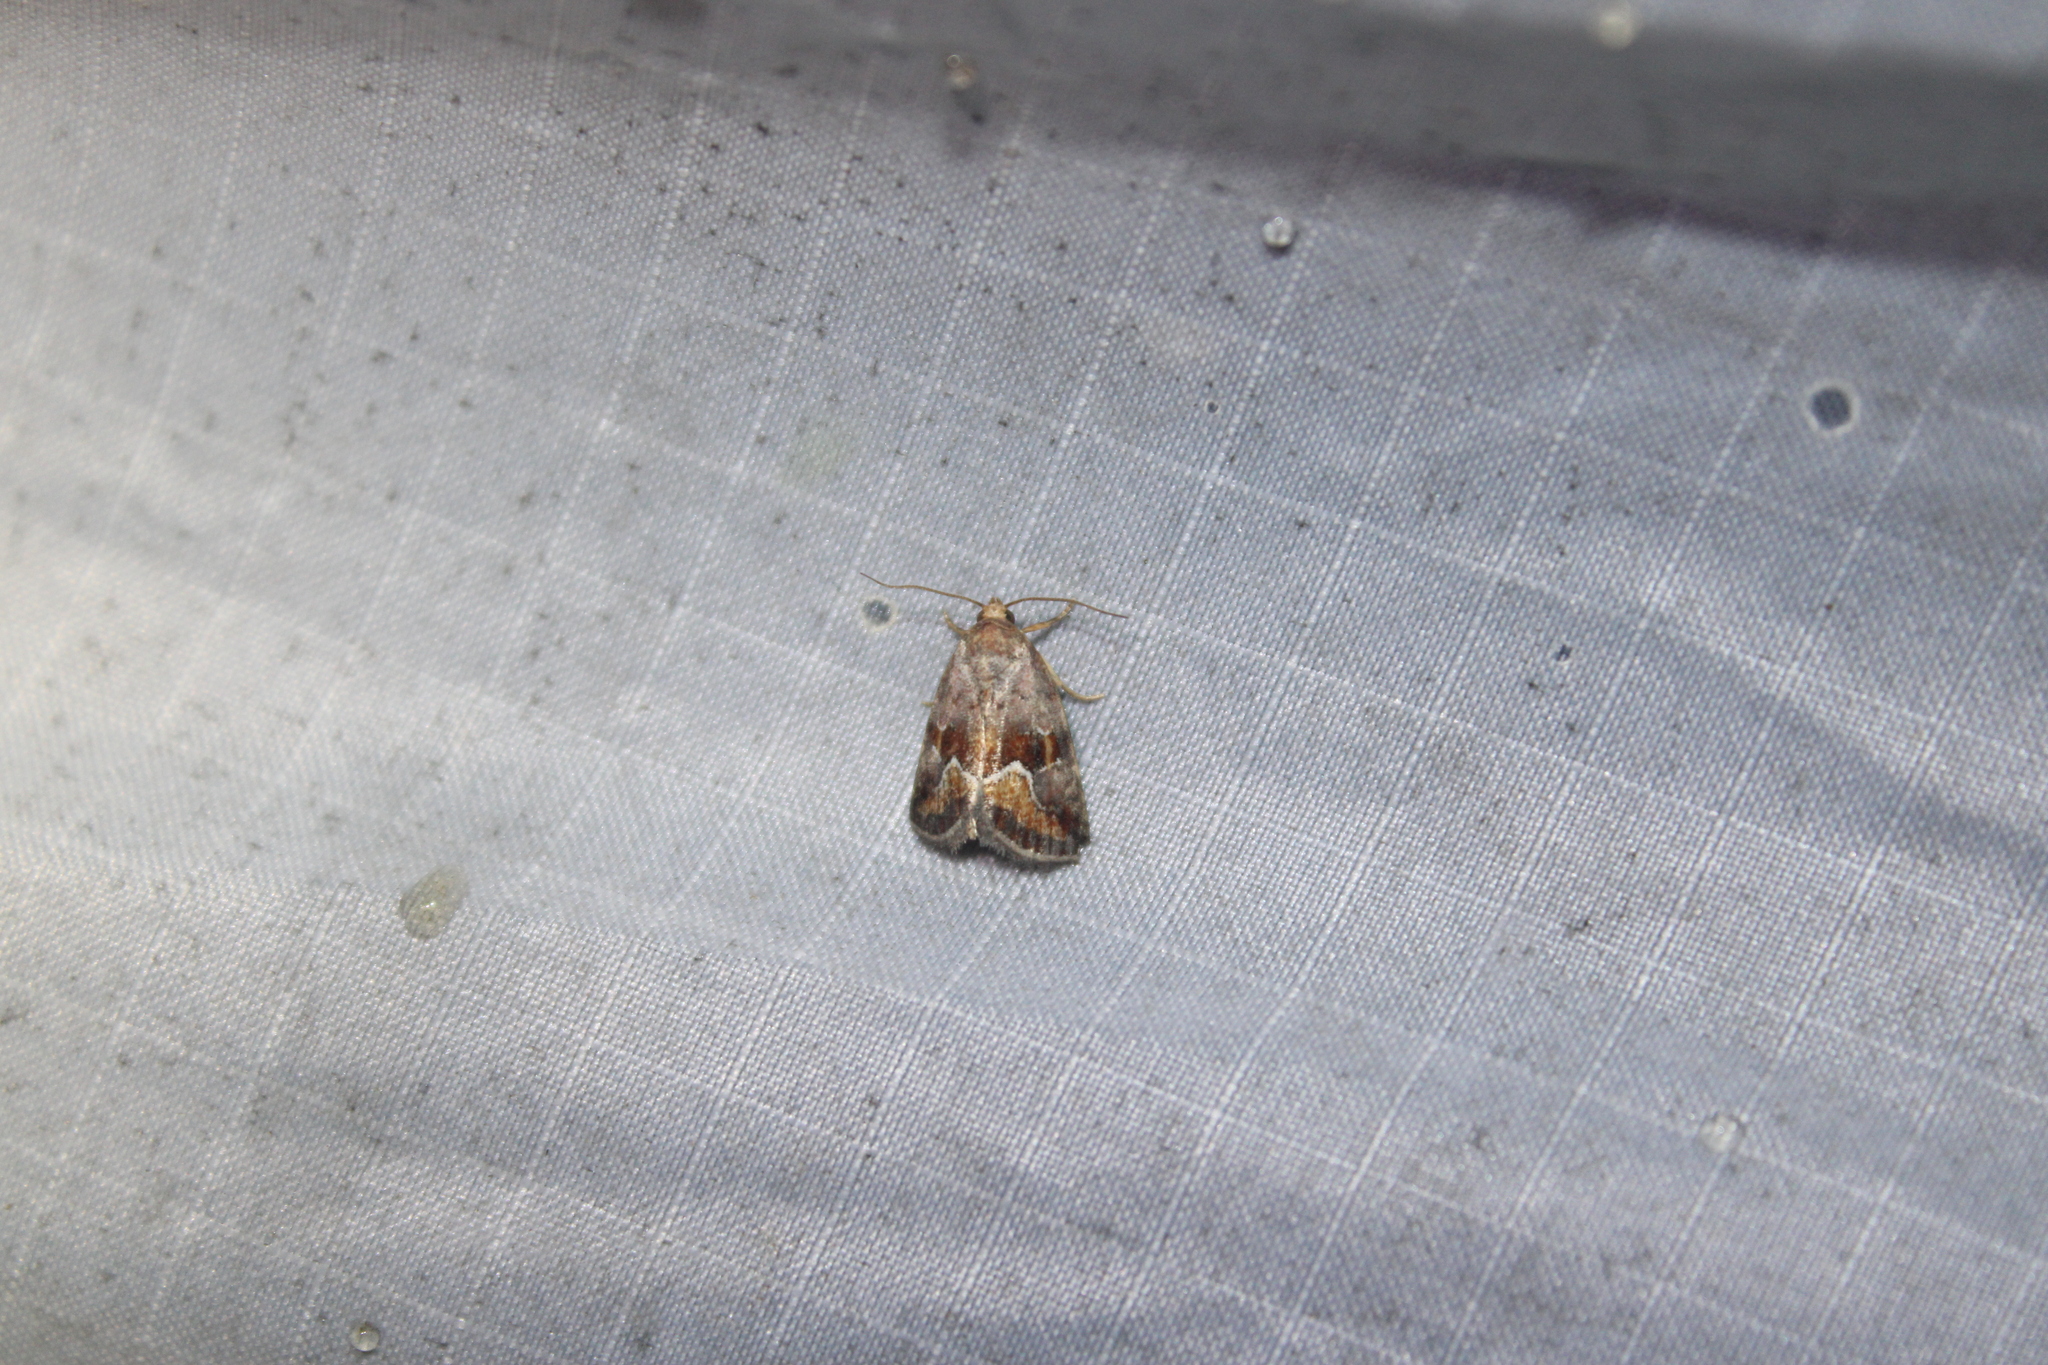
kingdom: Animalia
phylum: Arthropoda
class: Insecta
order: Lepidoptera
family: Noctuidae
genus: Deltote
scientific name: Deltote bellicula
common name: Bog glyph
